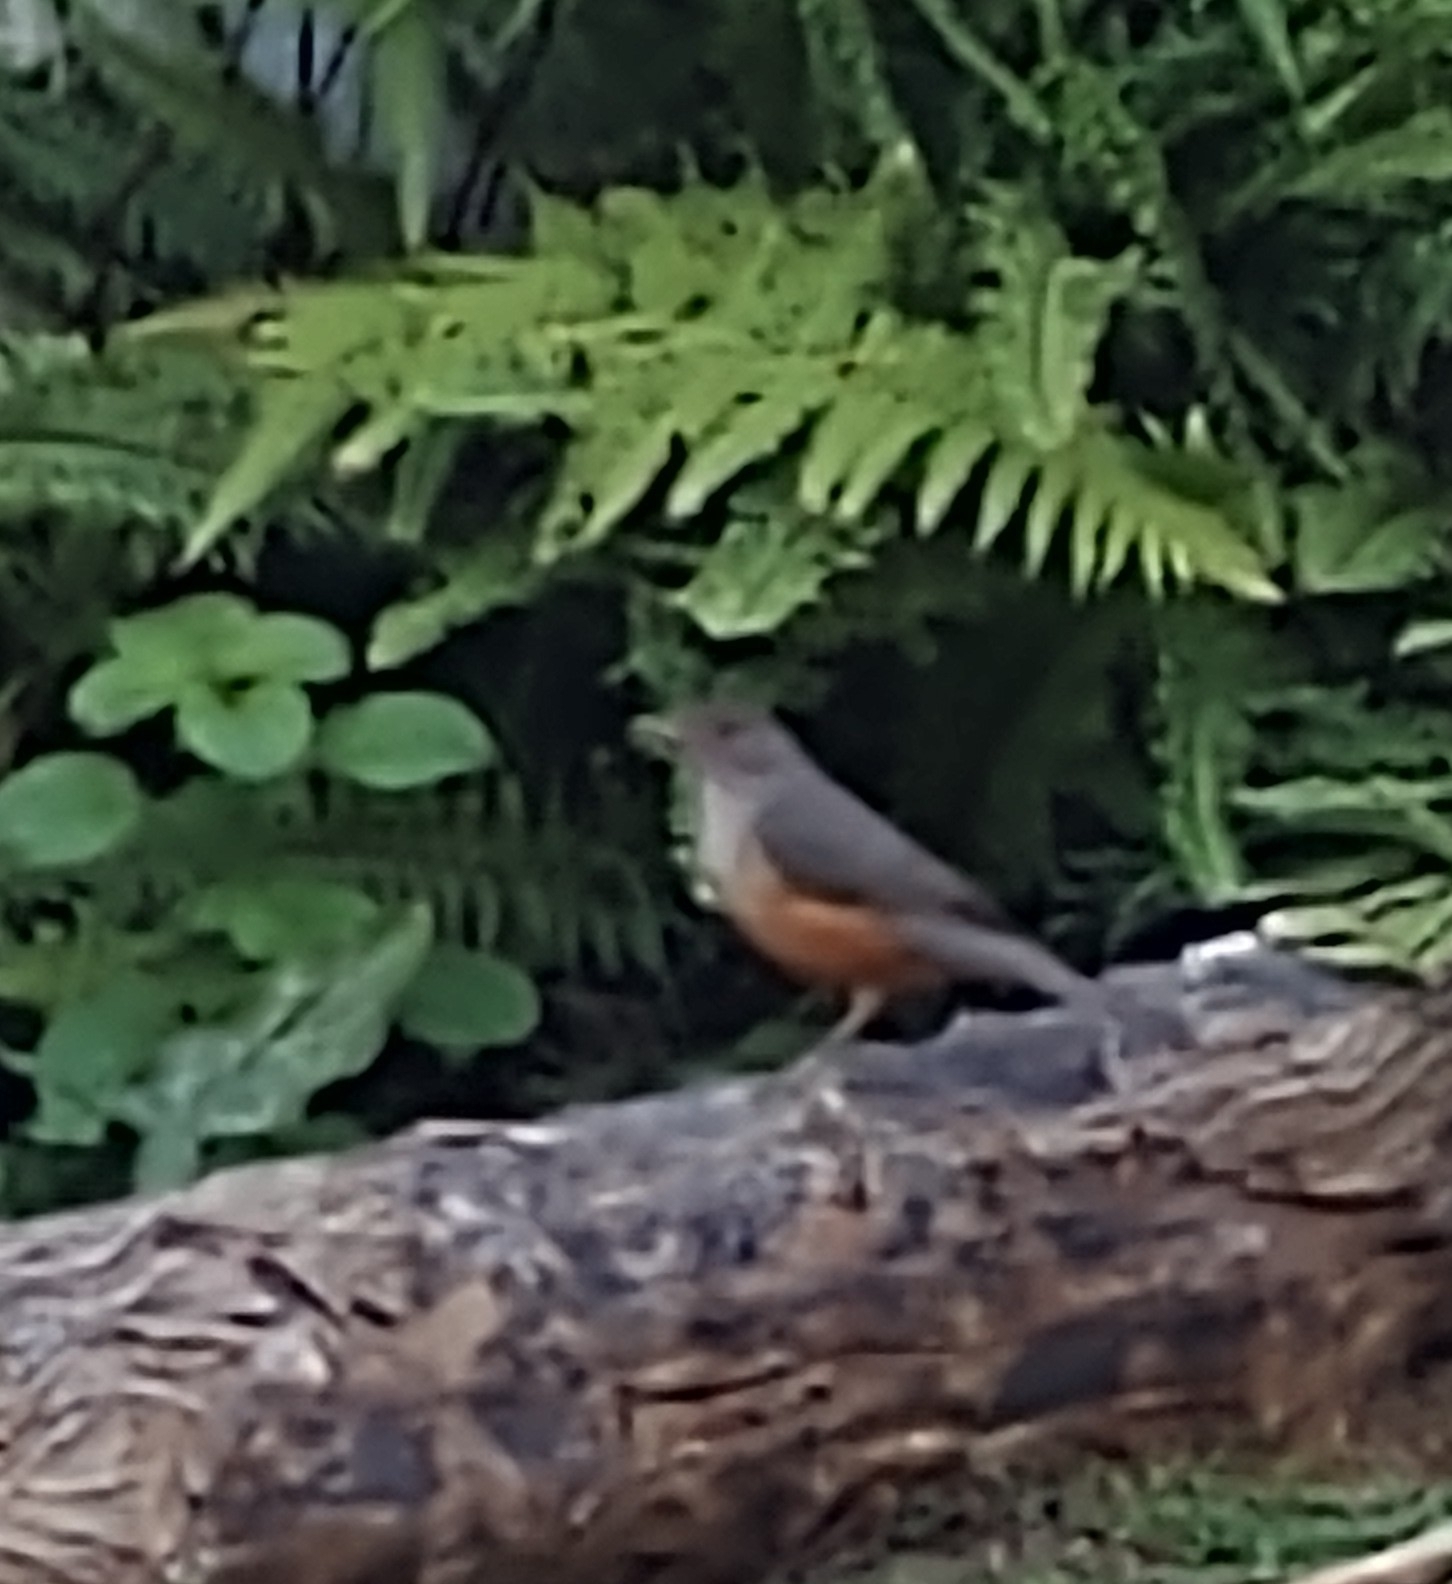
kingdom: Animalia
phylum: Chordata
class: Aves
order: Passeriformes
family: Turdidae
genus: Turdus
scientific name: Turdus rufiventris
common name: Rufous-bellied thrush
